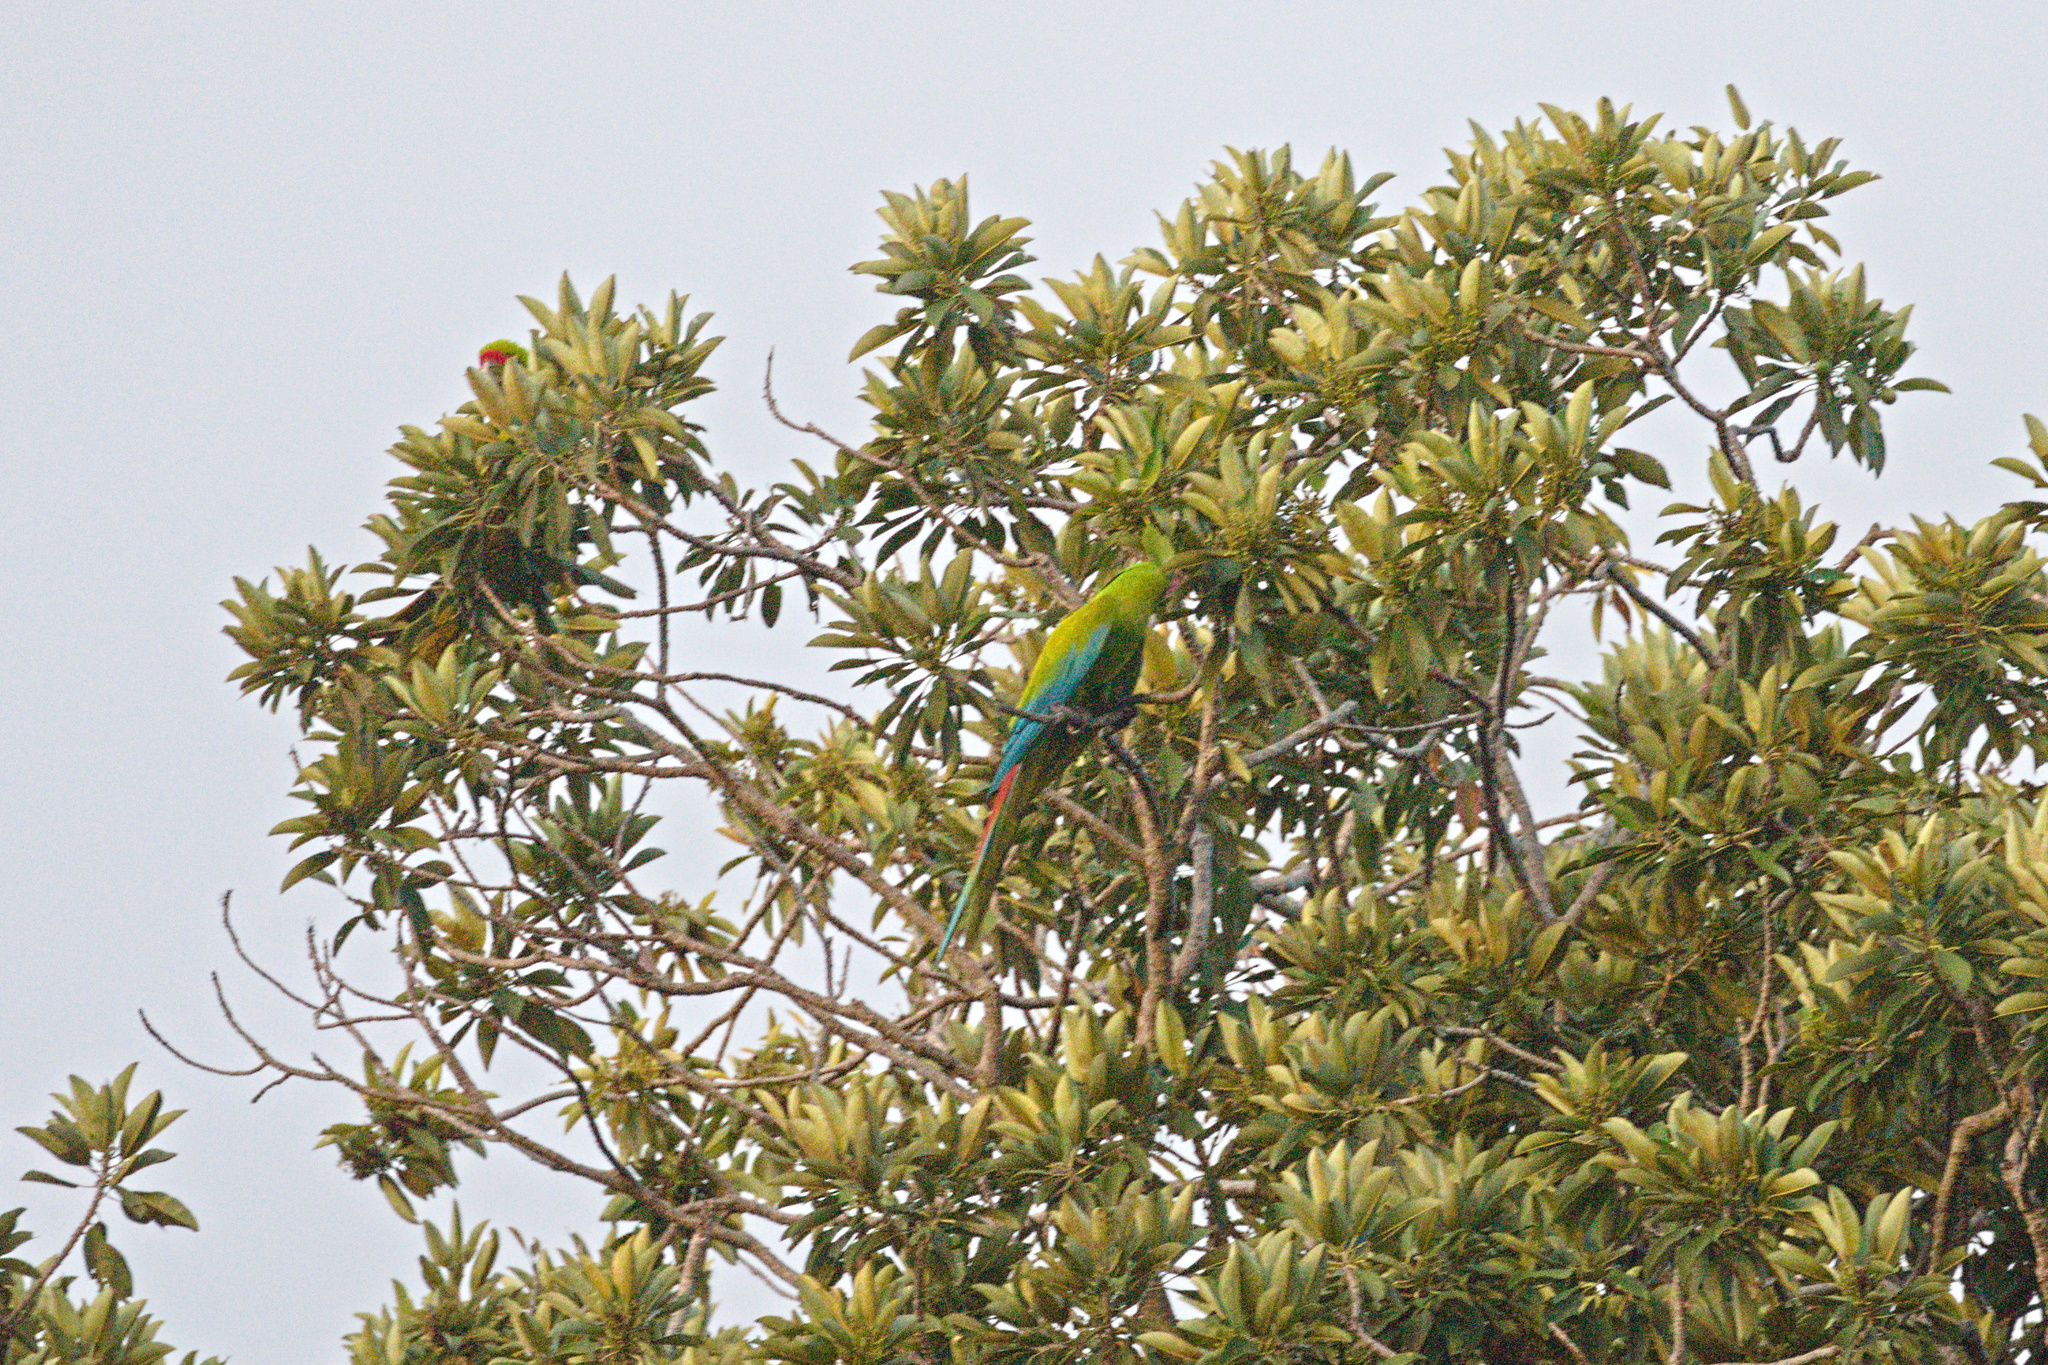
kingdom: Animalia
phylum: Chordata
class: Aves
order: Psittaciformes
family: Psittacidae
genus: Ara
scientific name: Ara ambiguus
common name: Great green macaw
